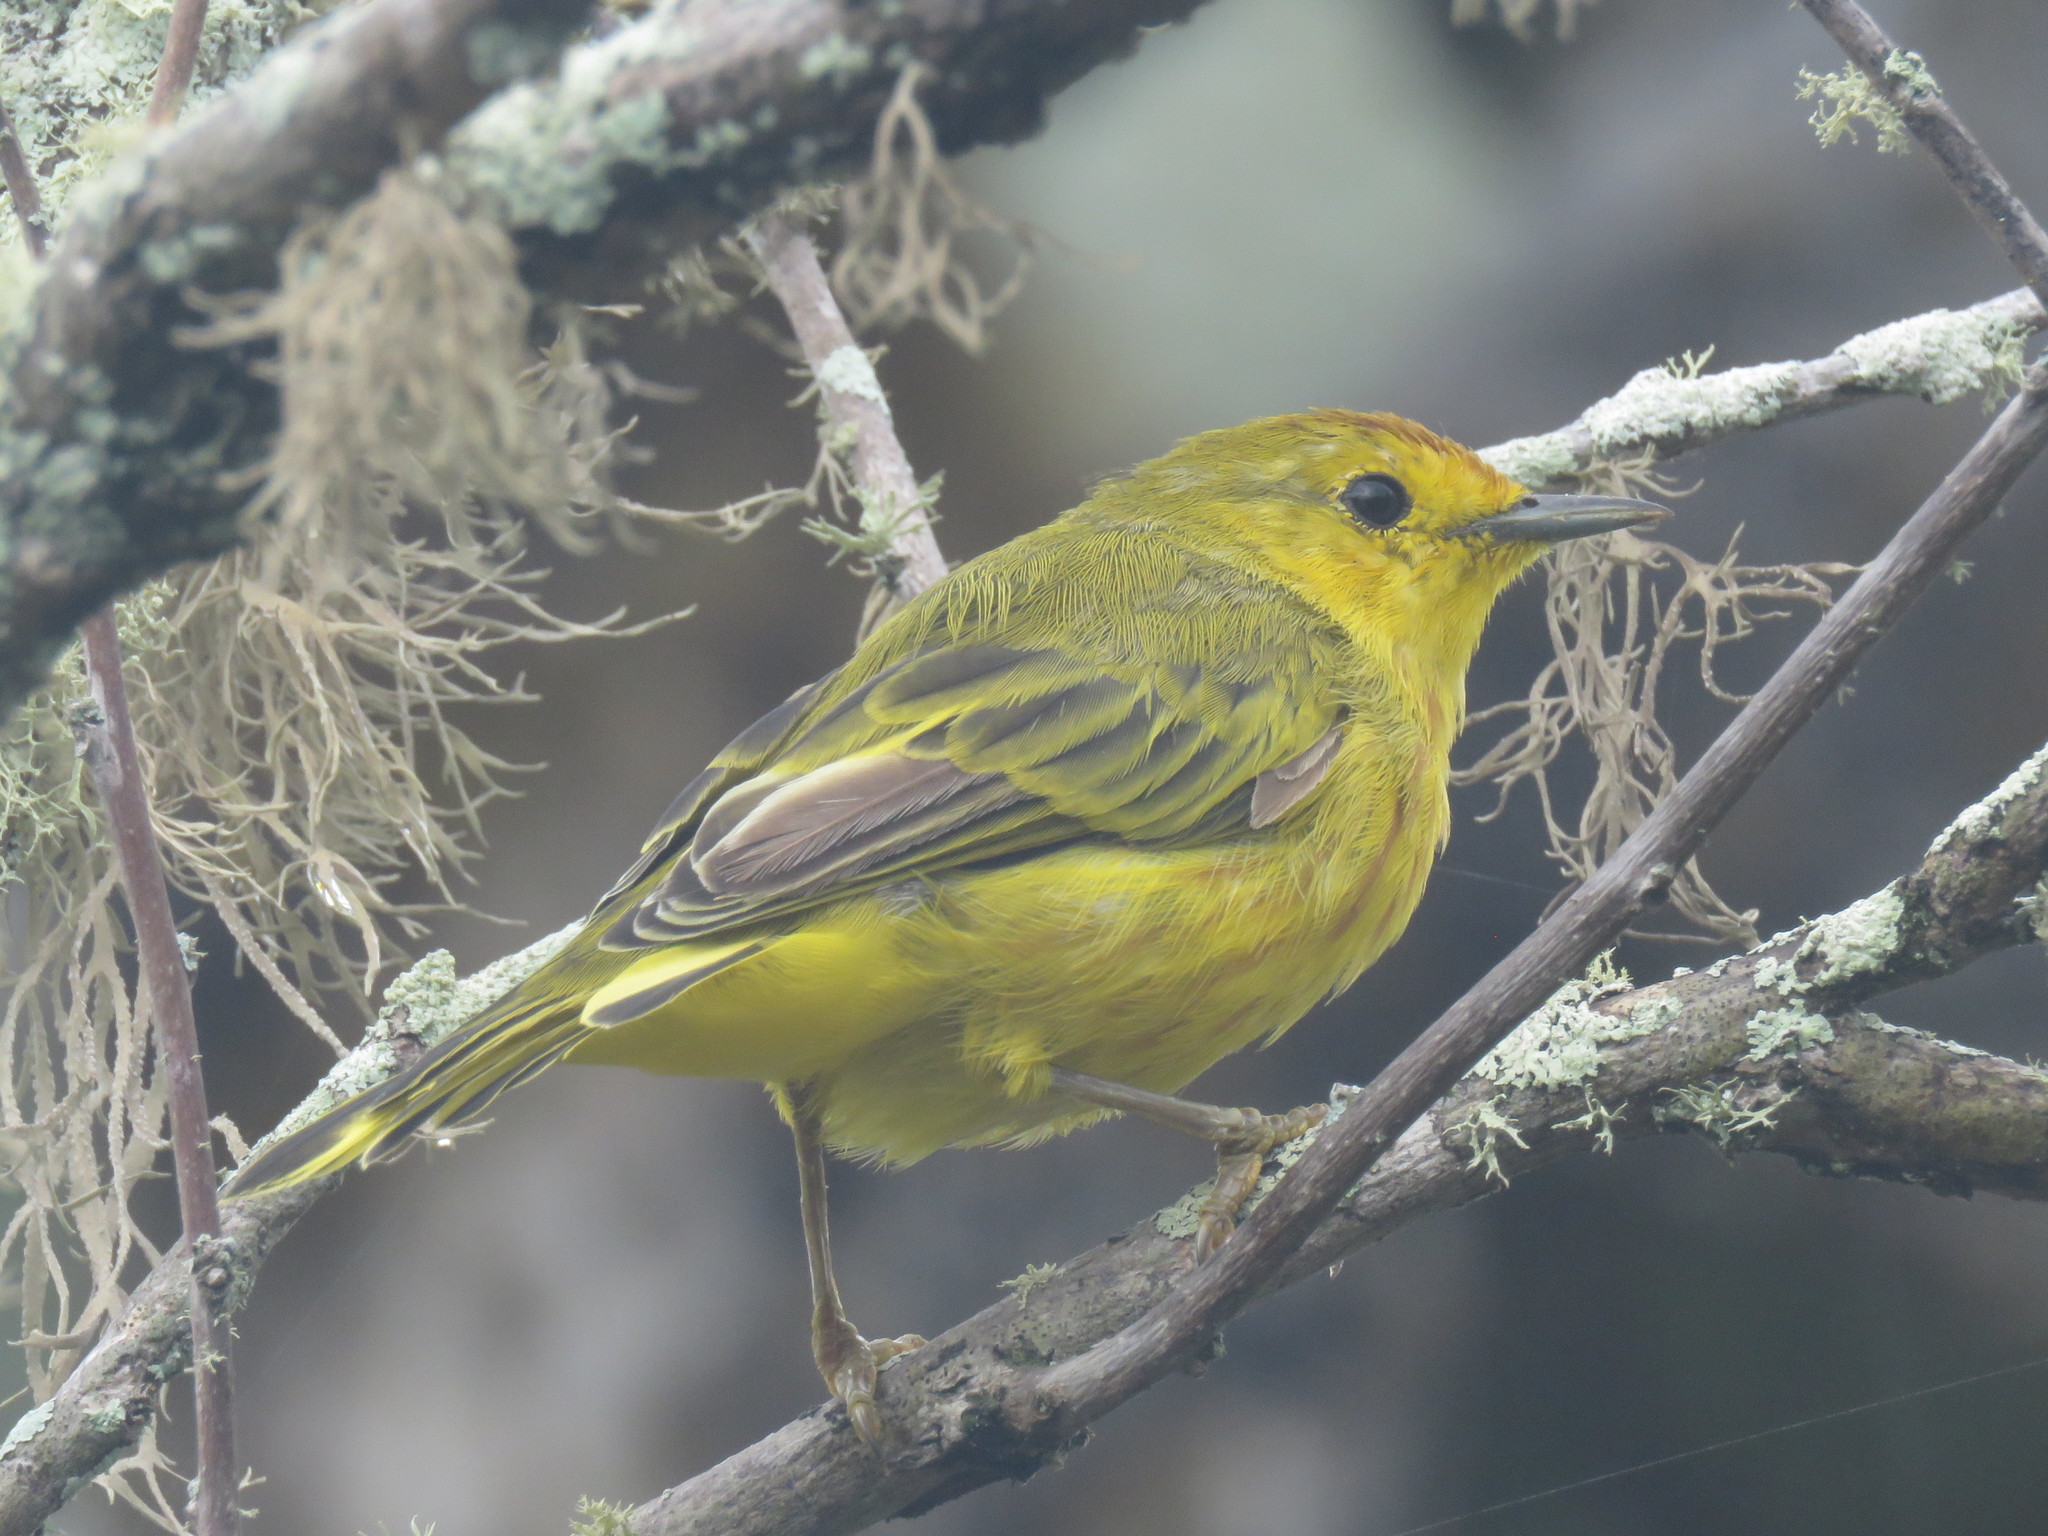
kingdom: Animalia
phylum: Chordata
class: Aves
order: Passeriformes
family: Parulidae
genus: Setophaga
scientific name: Setophaga petechia
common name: Yellow warbler
